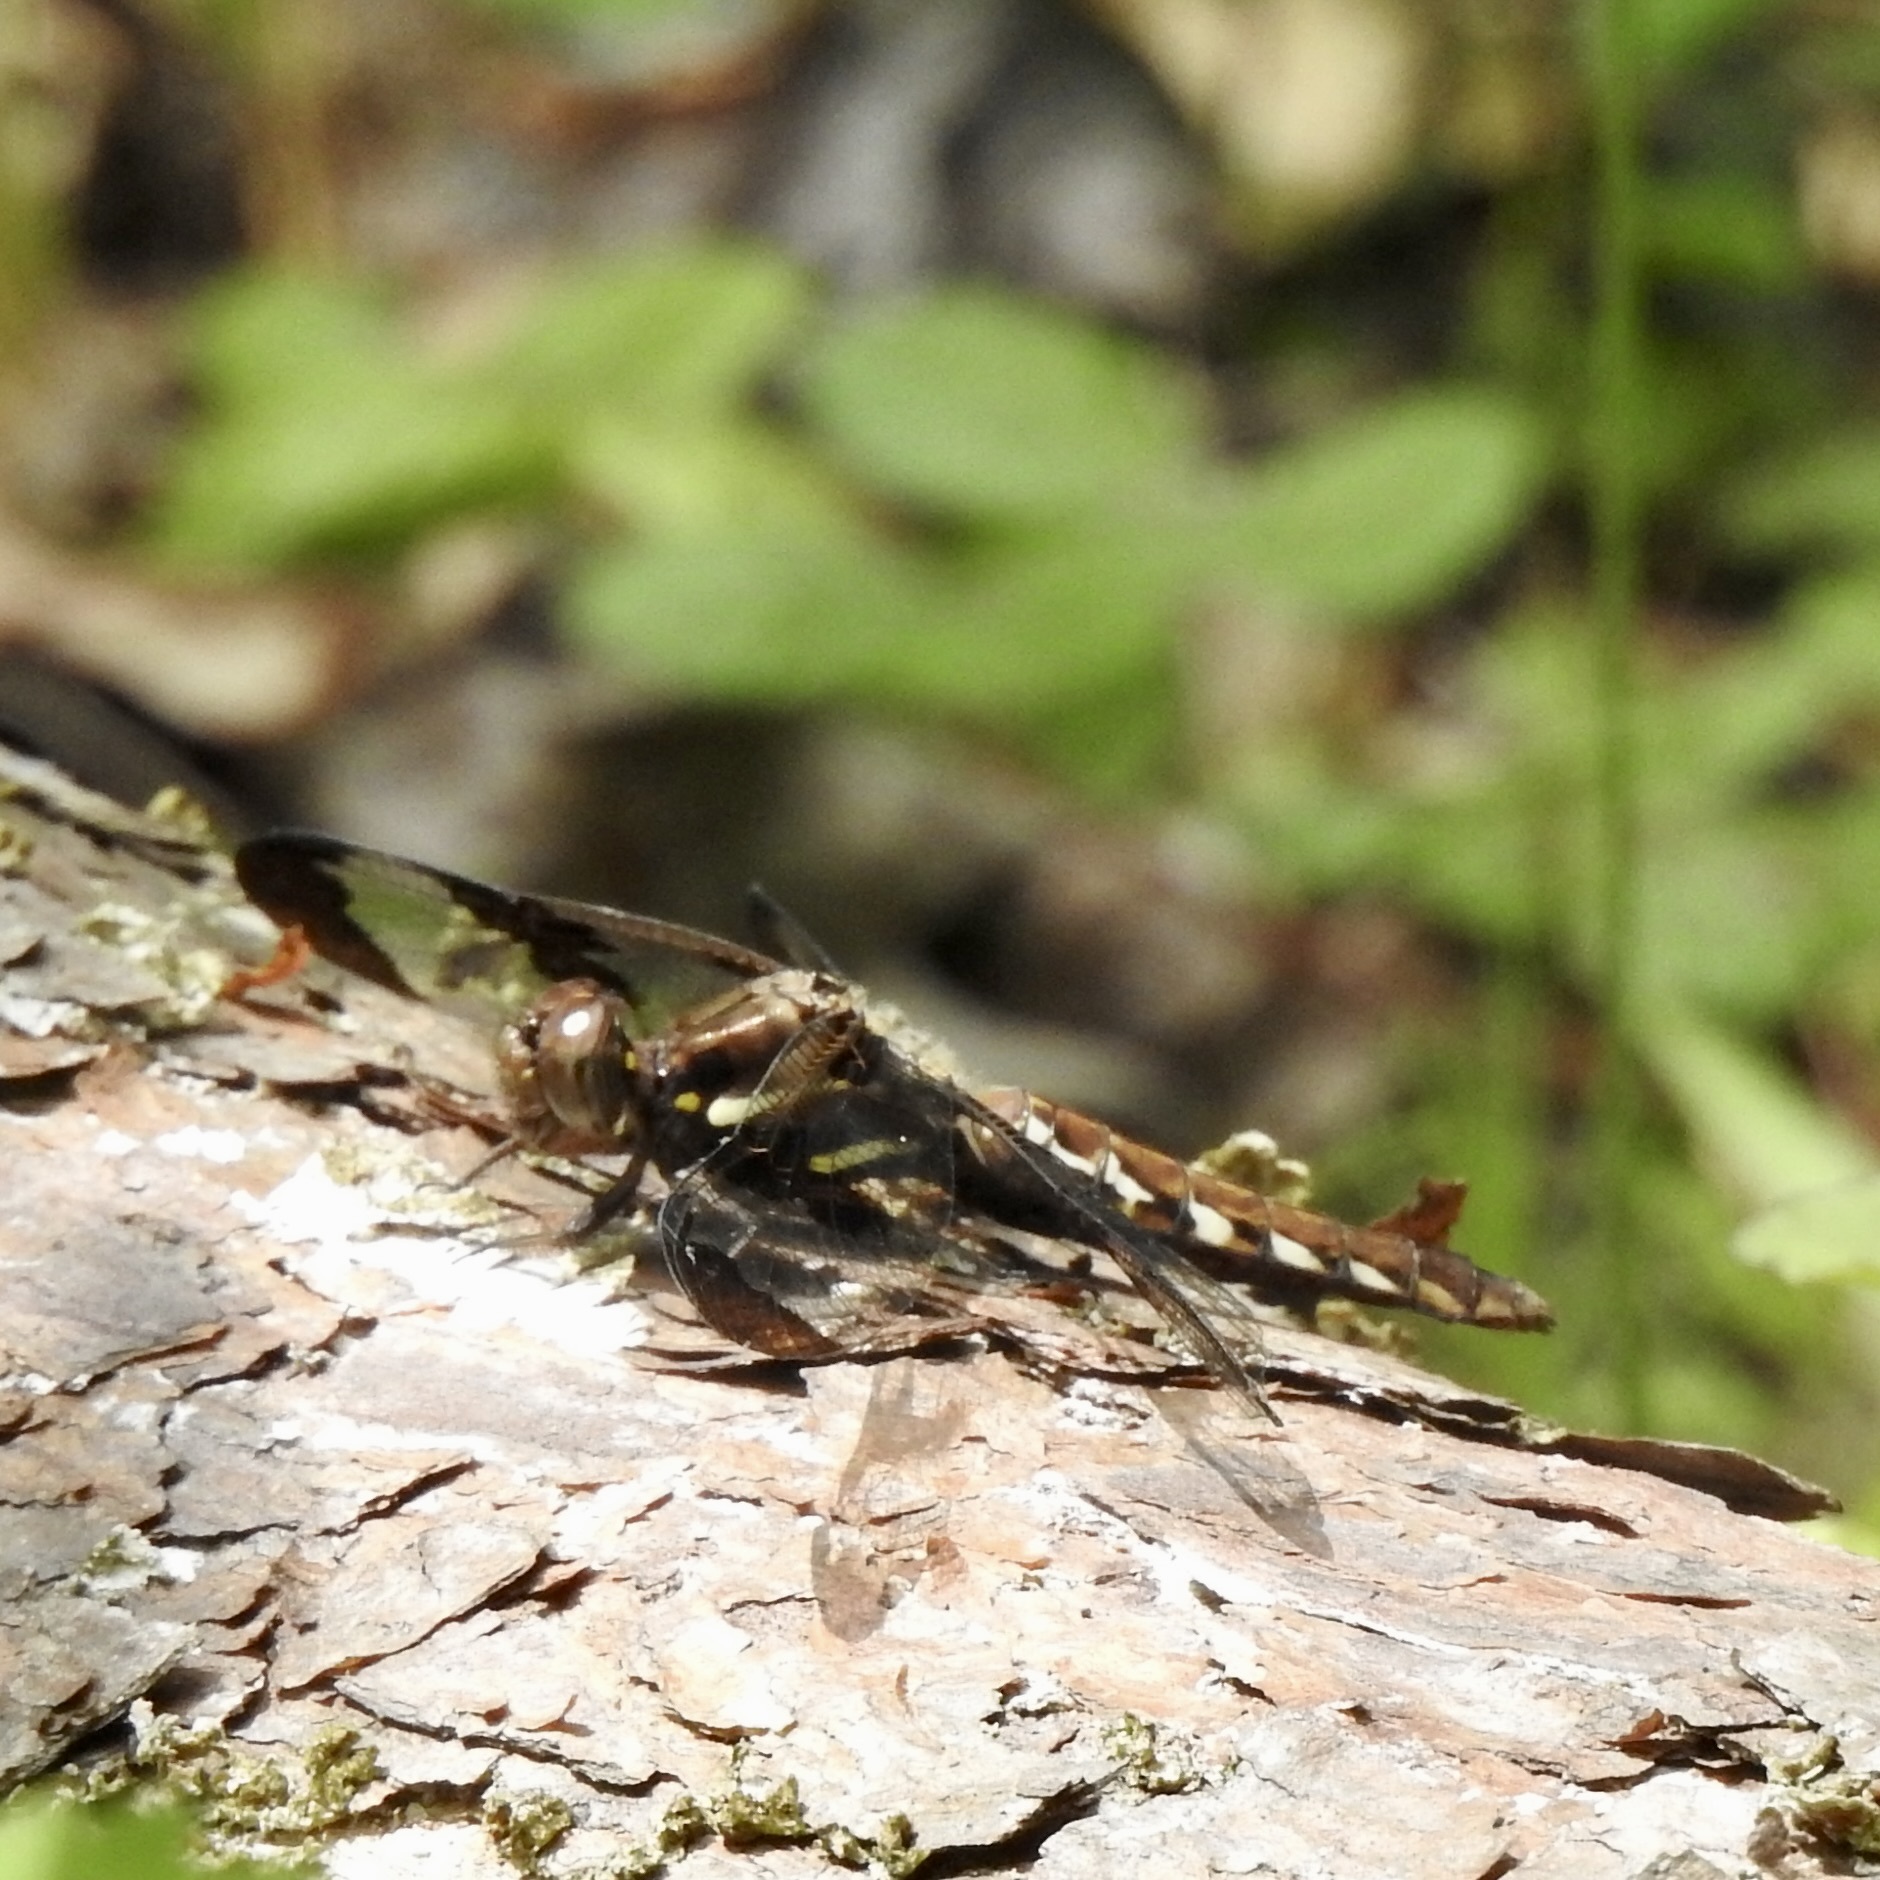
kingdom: Animalia
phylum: Arthropoda
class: Insecta
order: Odonata
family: Libellulidae
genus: Plathemis
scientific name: Plathemis lydia
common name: Common whitetail
